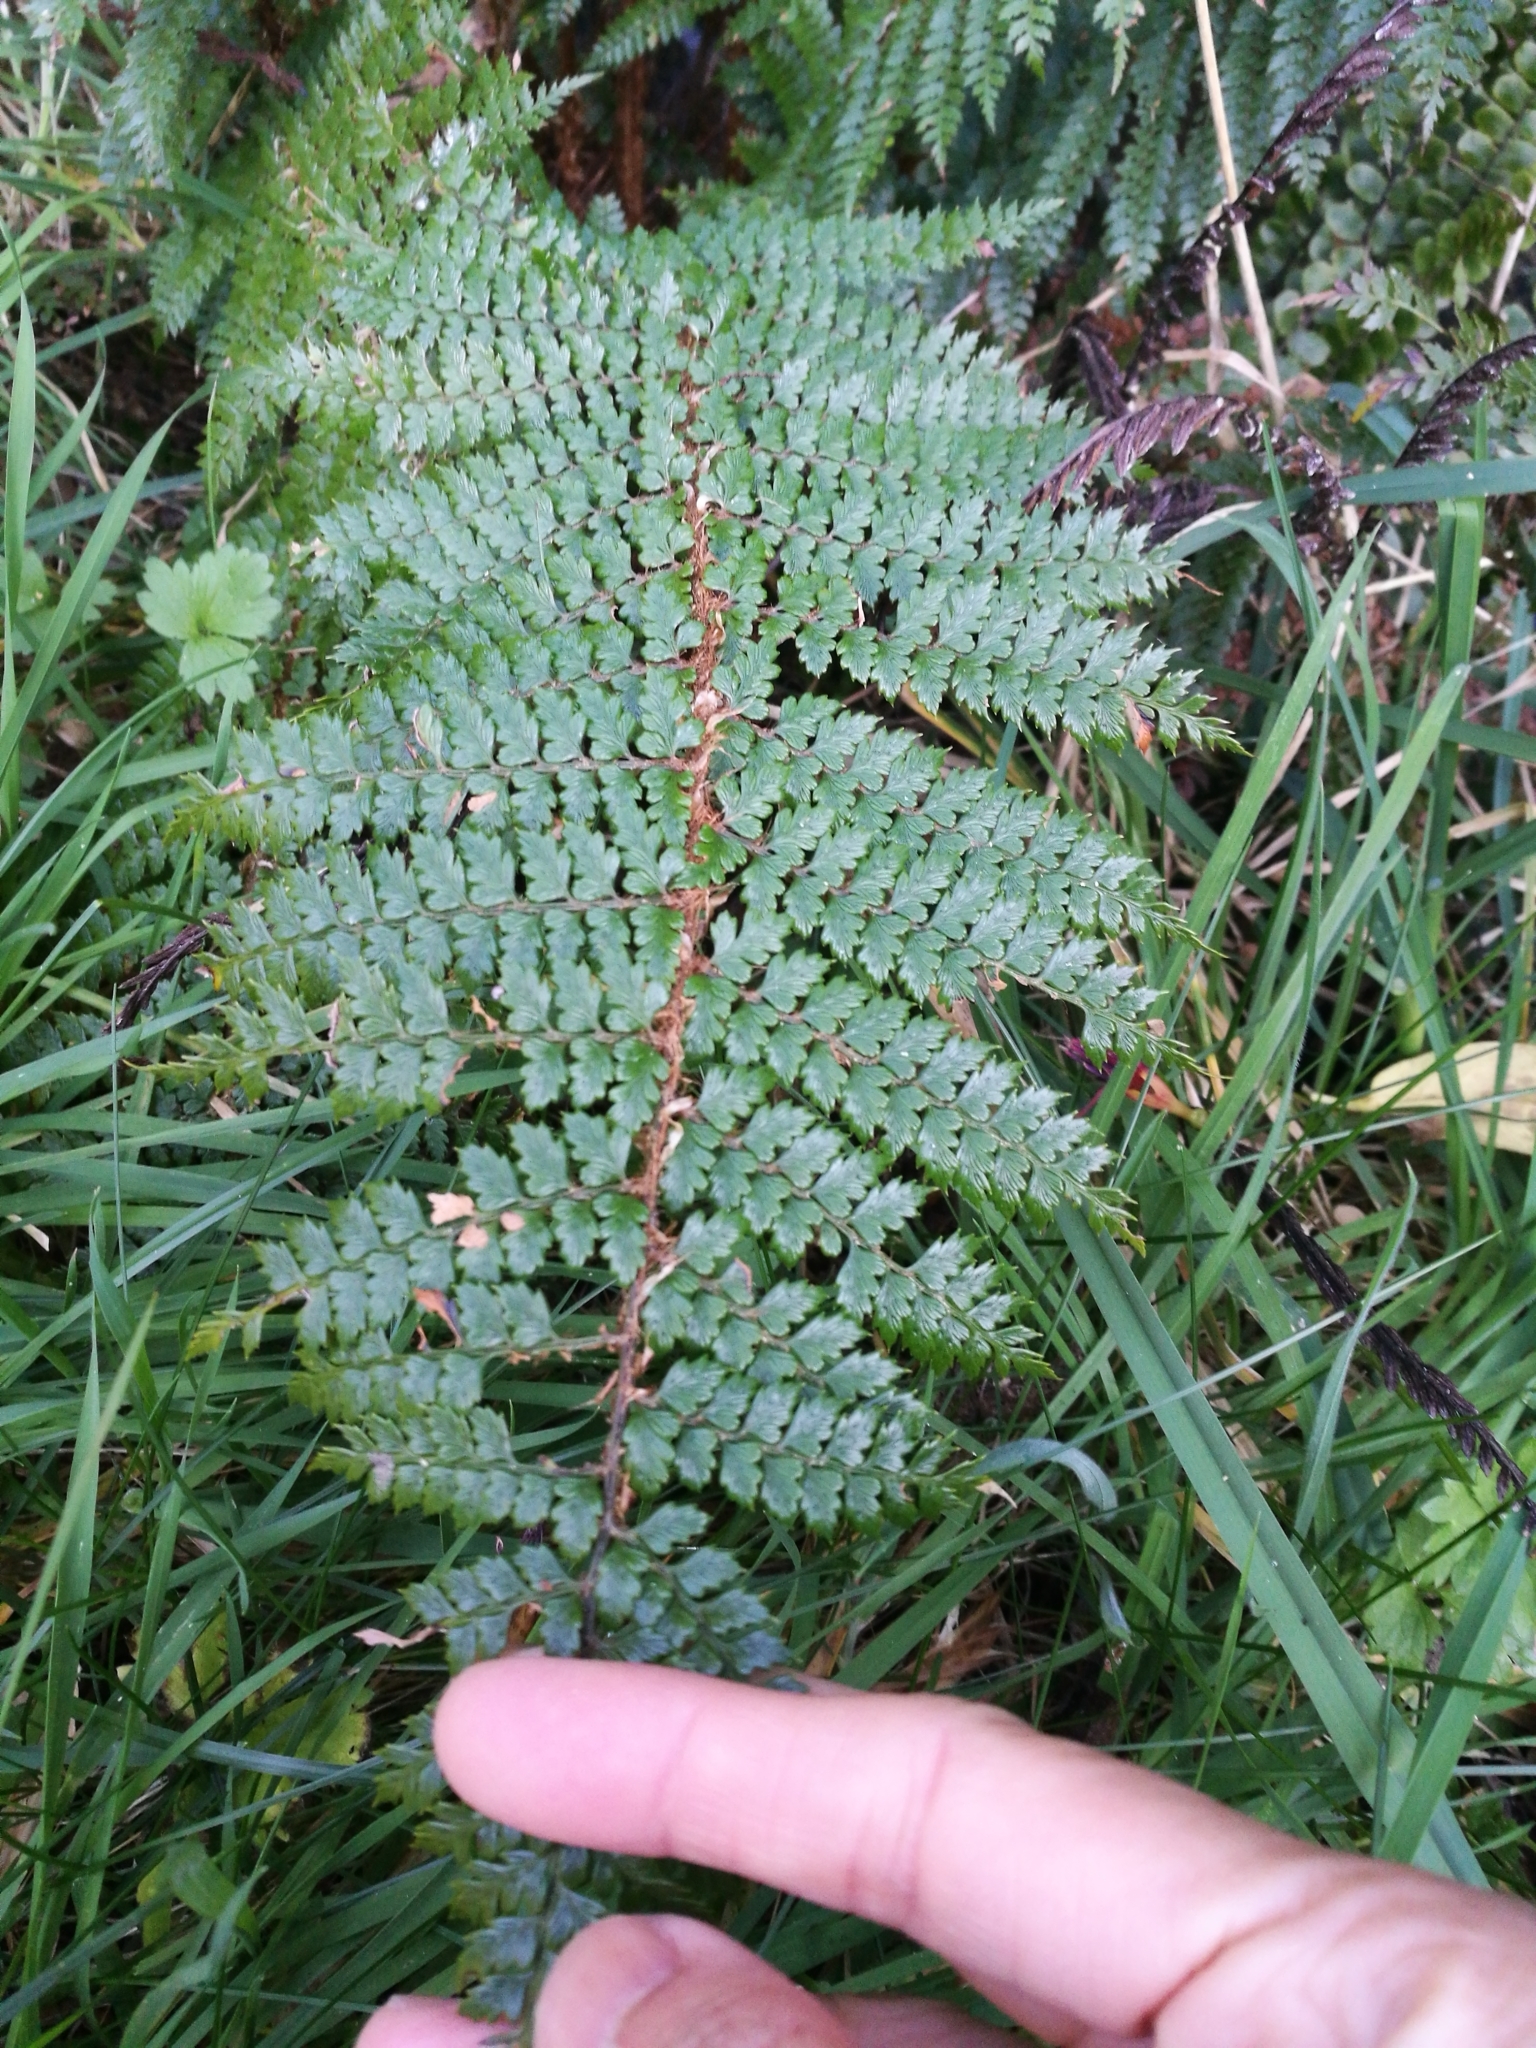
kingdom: Plantae
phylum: Tracheophyta
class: Polypodiopsida
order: Polypodiales
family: Dryopteridaceae
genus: Polystichum
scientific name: Polystichum vestitum
